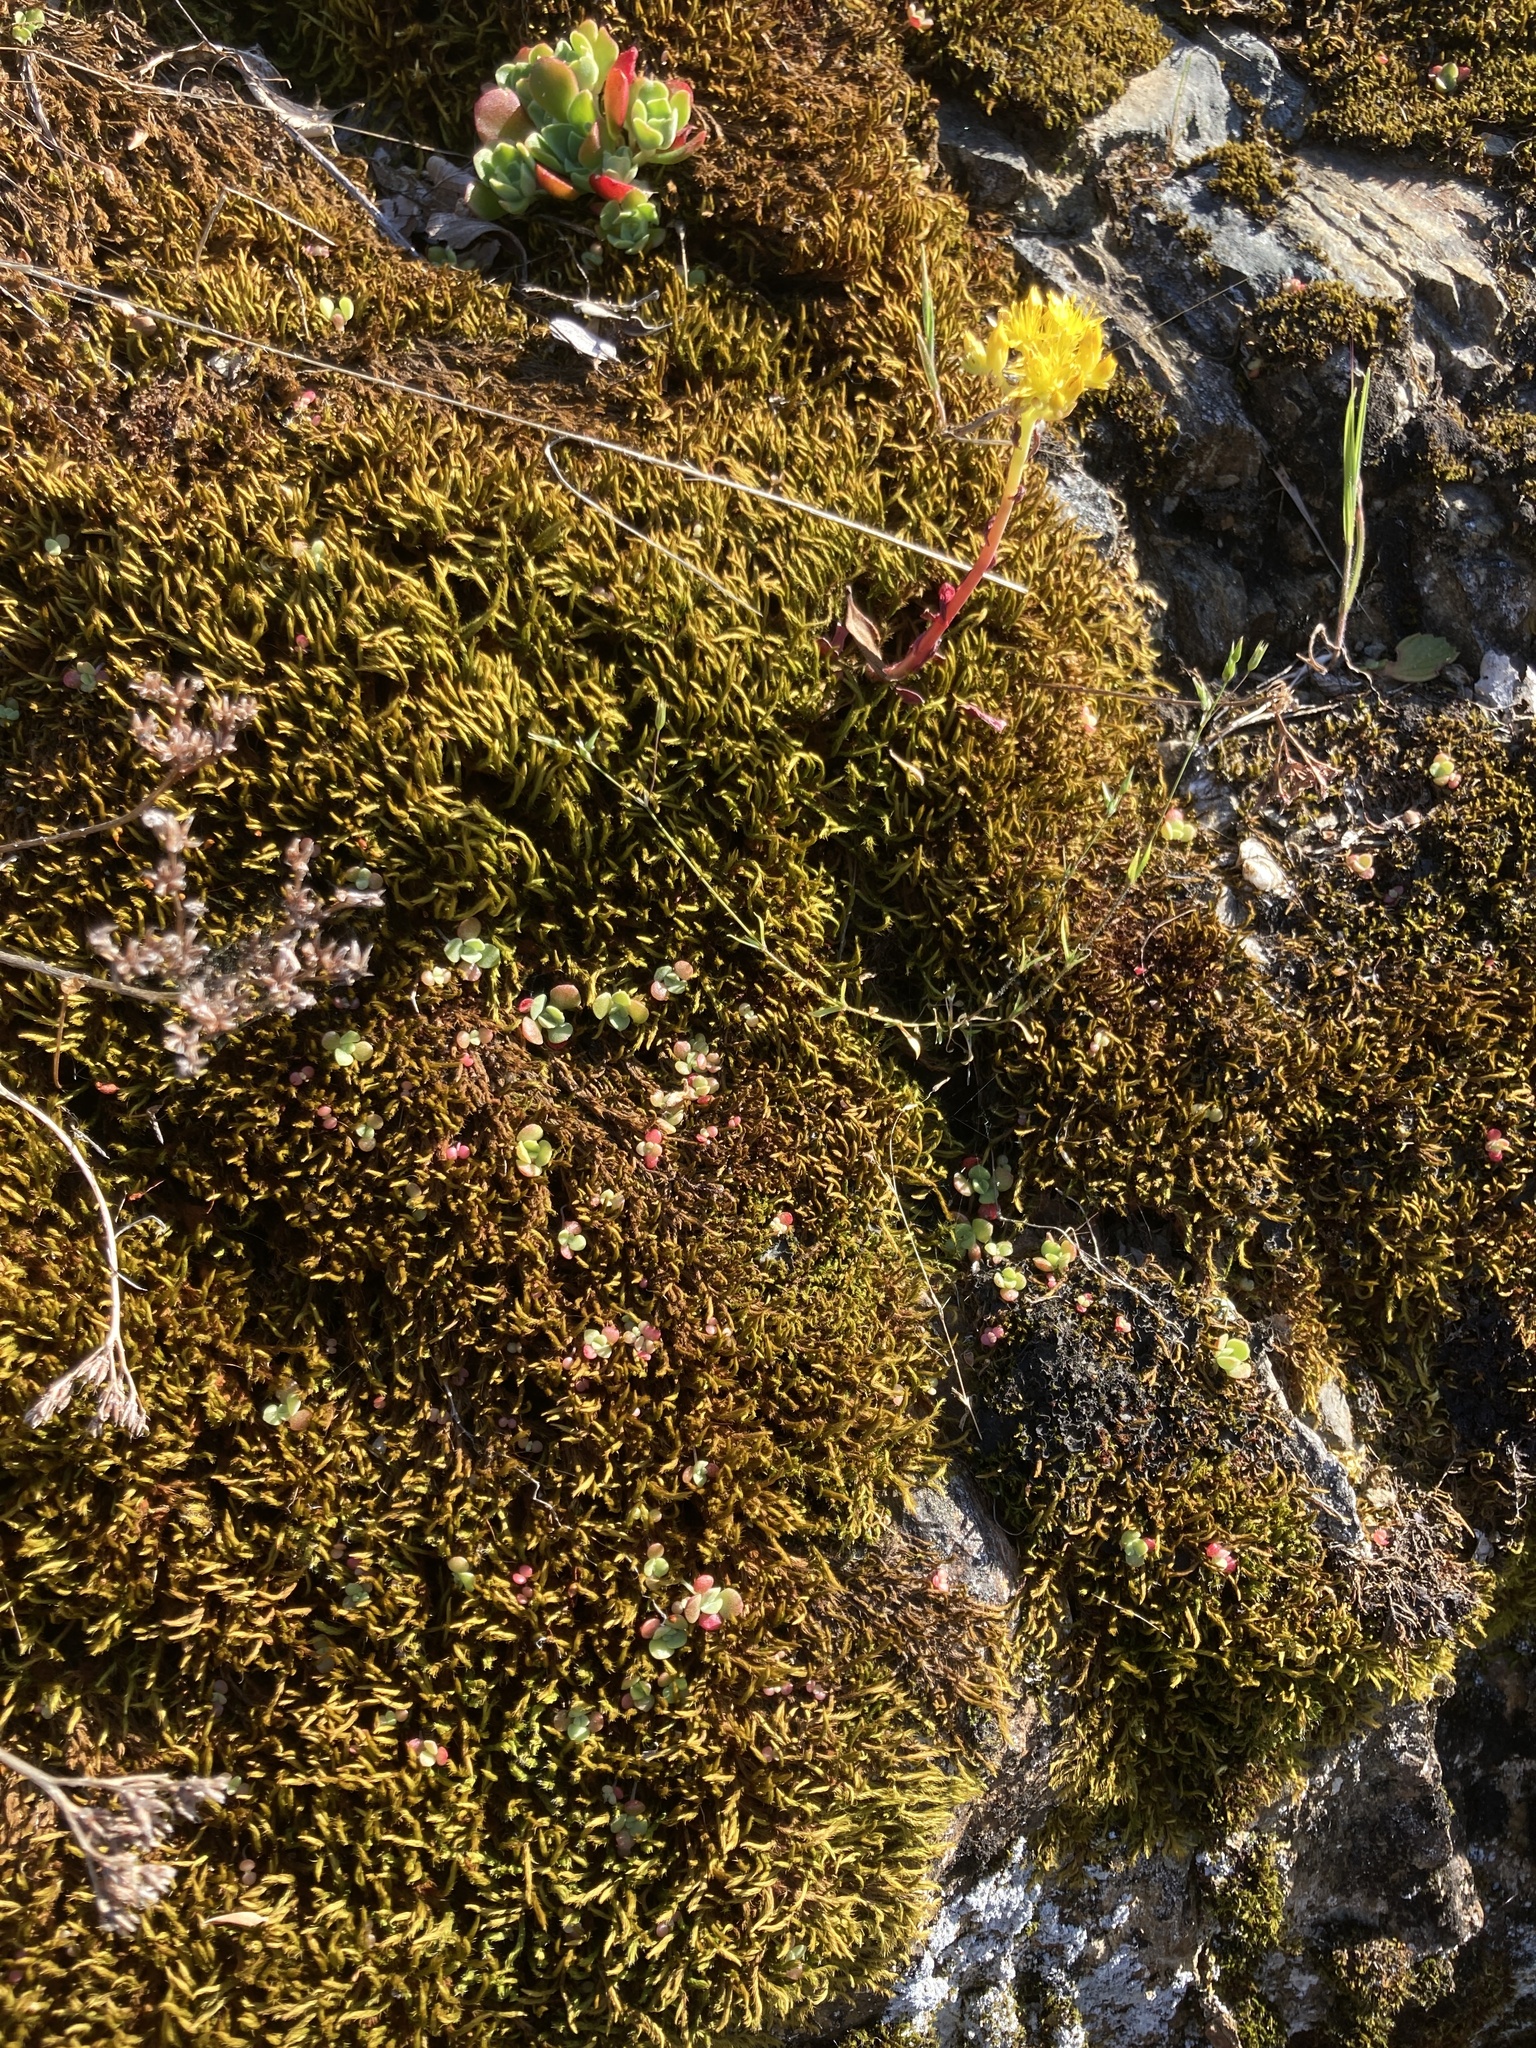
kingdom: Plantae
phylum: Tracheophyta
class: Magnoliopsida
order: Saxifragales
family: Crassulaceae
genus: Sedum
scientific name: Sedum spathulifolium
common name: Colorado stonecrop
